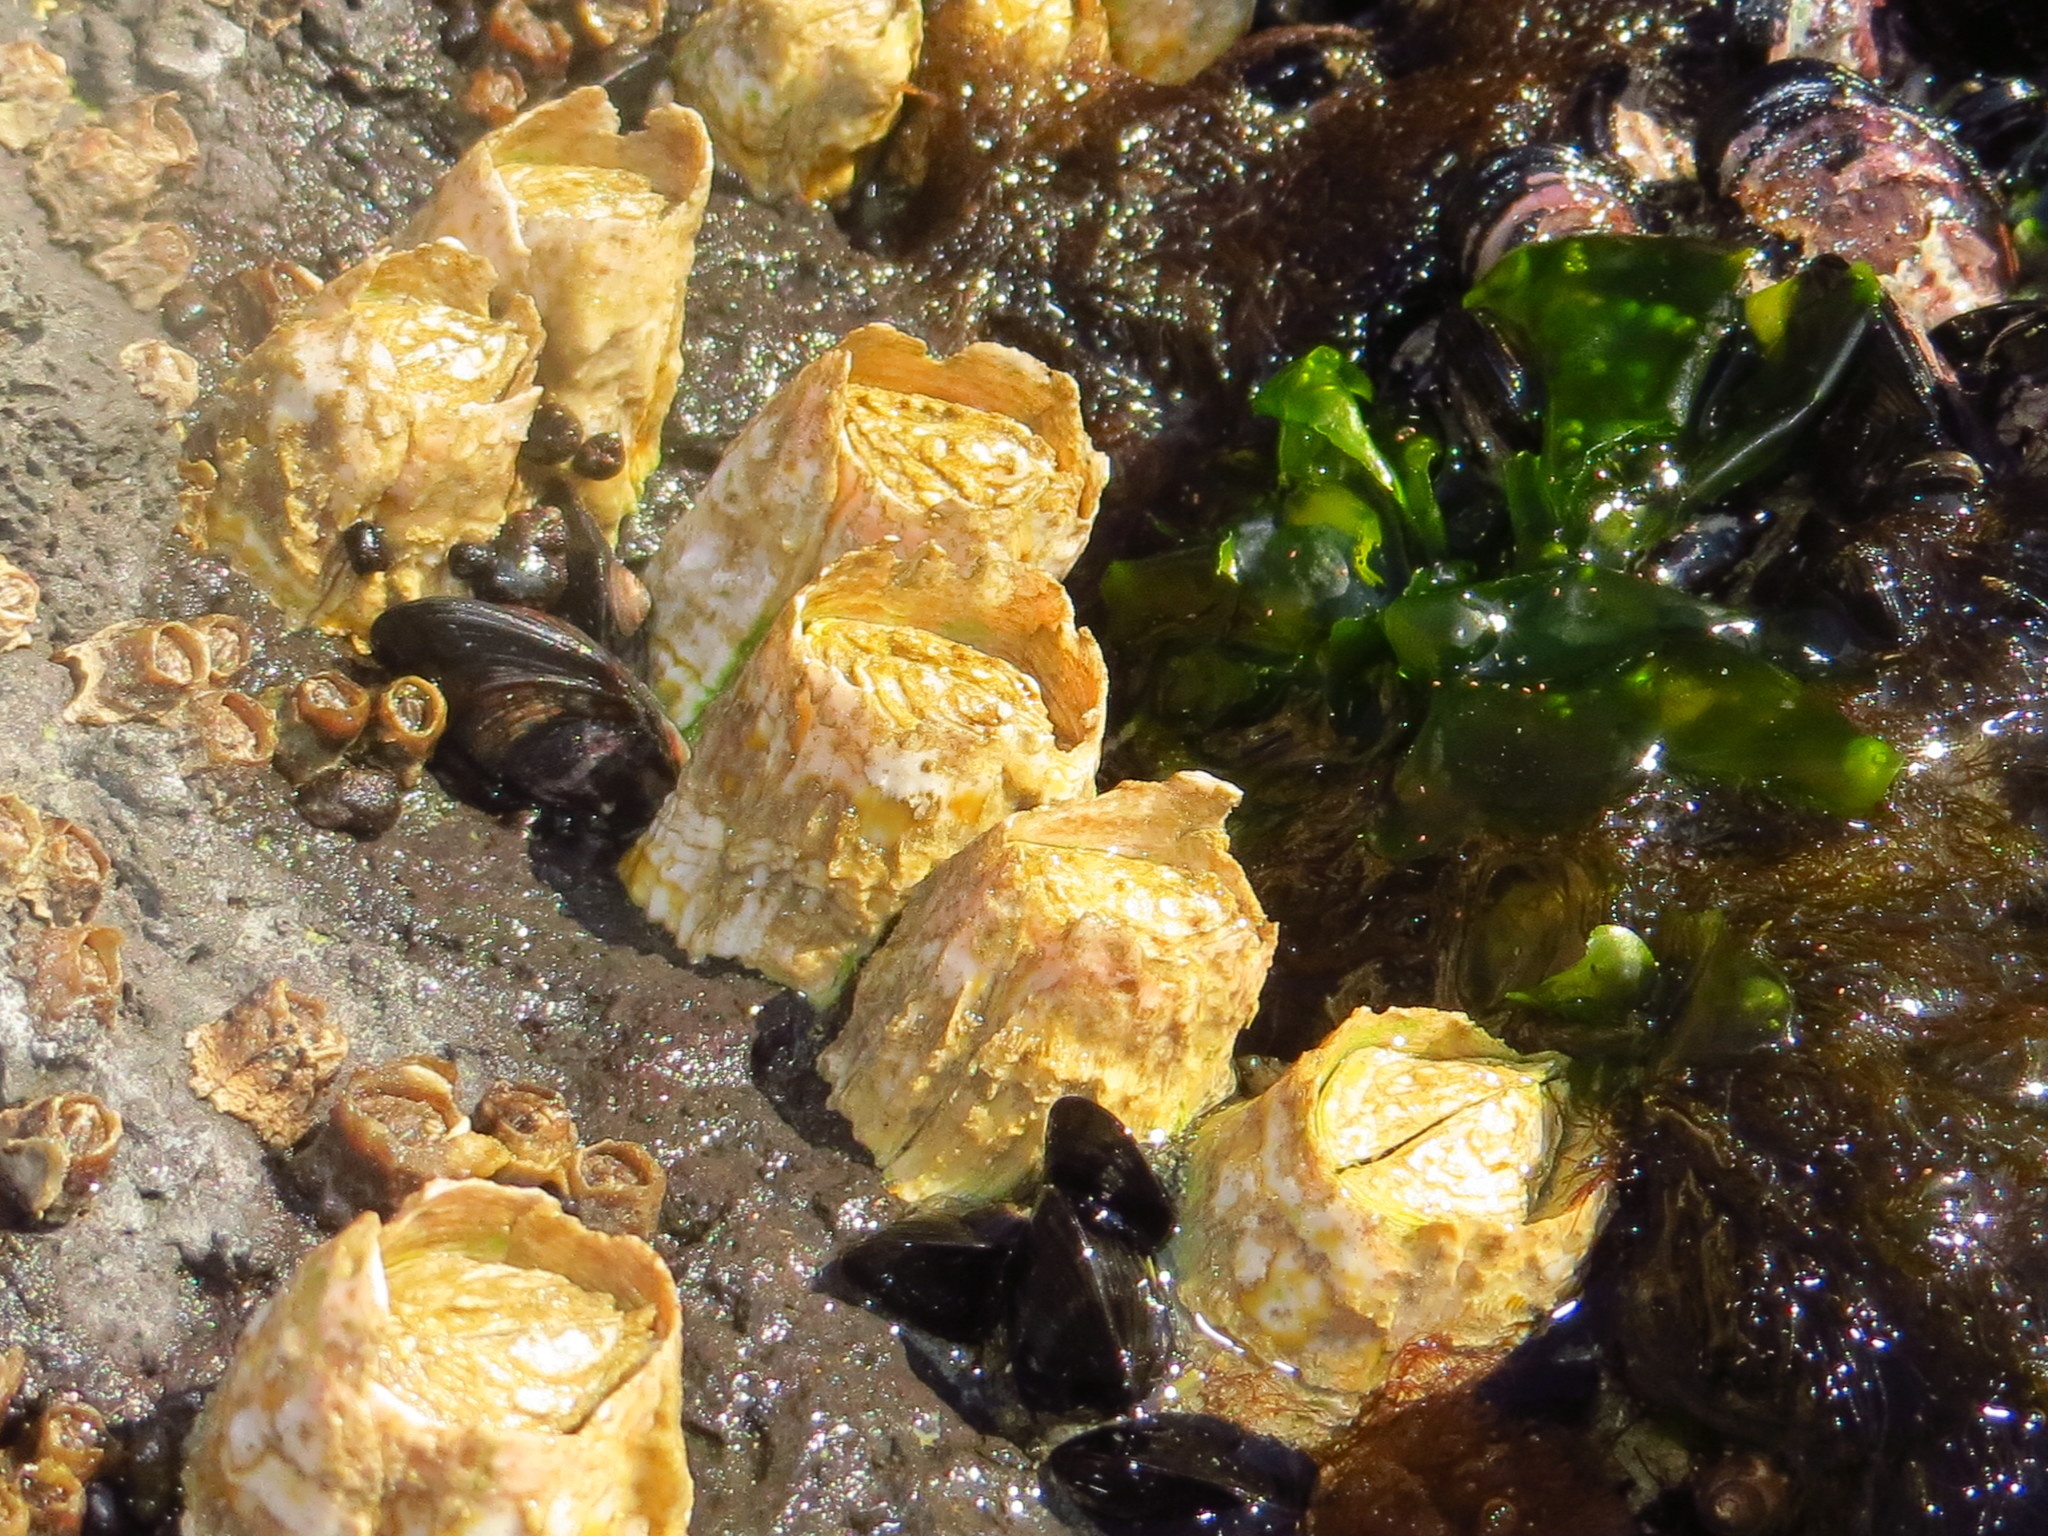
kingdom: Animalia
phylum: Arthropoda
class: Maxillopoda
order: Sessilia
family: Tetraclitidae
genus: Epopella
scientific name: Epopella plicata
